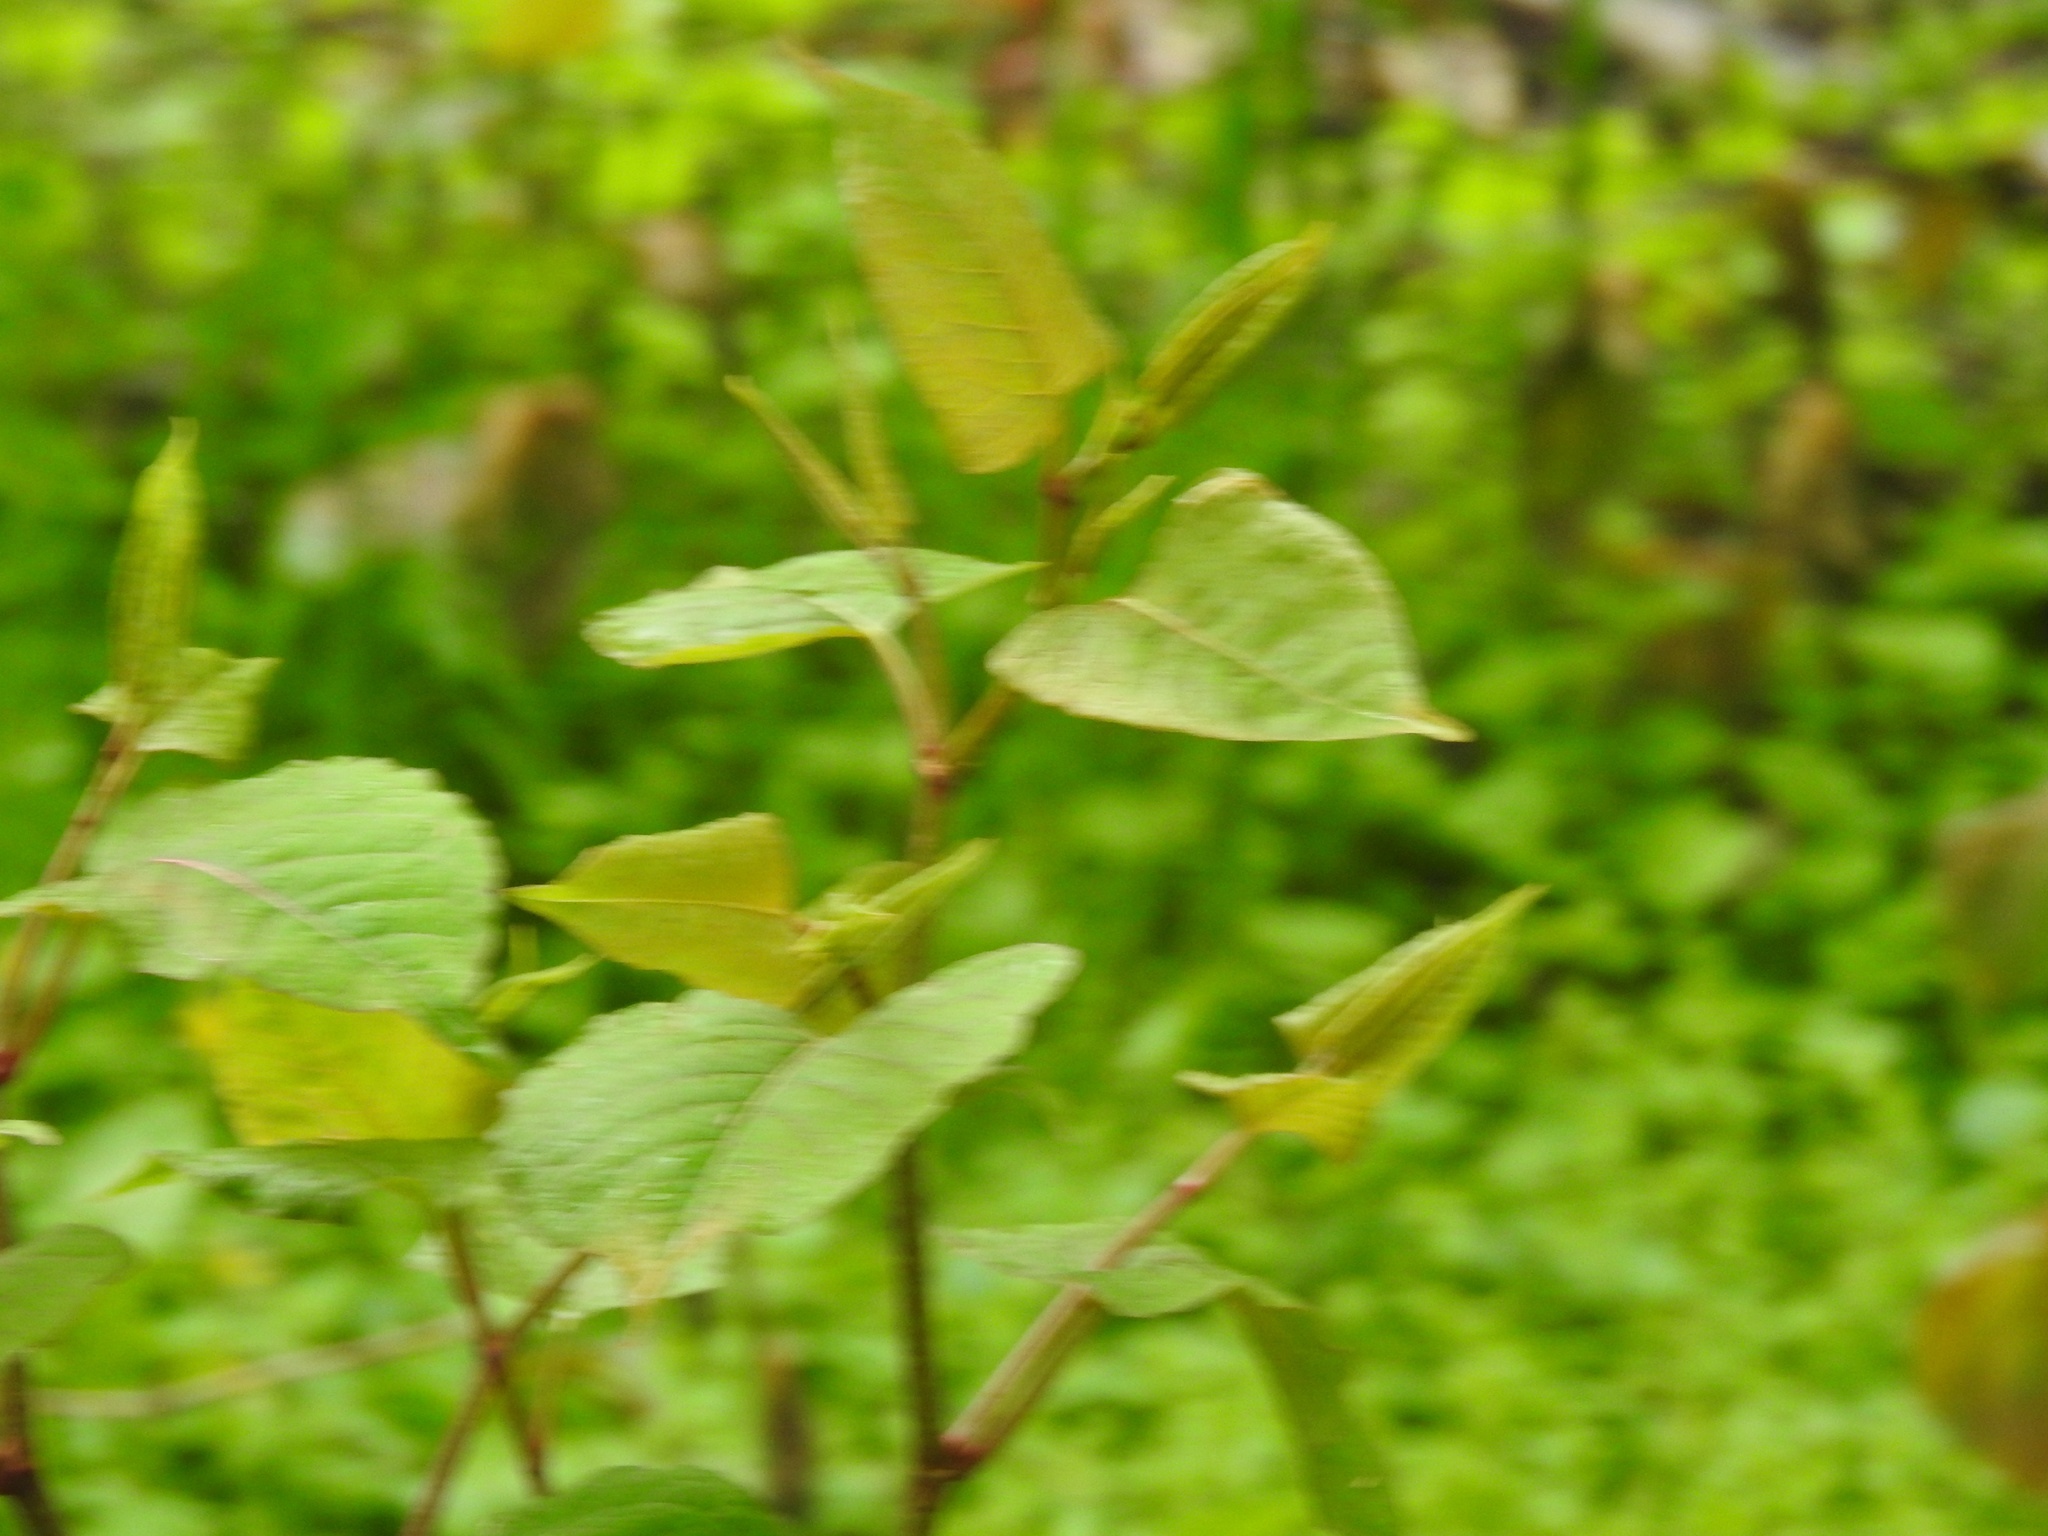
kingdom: Plantae
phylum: Tracheophyta
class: Magnoliopsida
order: Caryophyllales
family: Polygonaceae
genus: Reynoutria
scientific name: Reynoutria japonica
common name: Japanese knotweed
